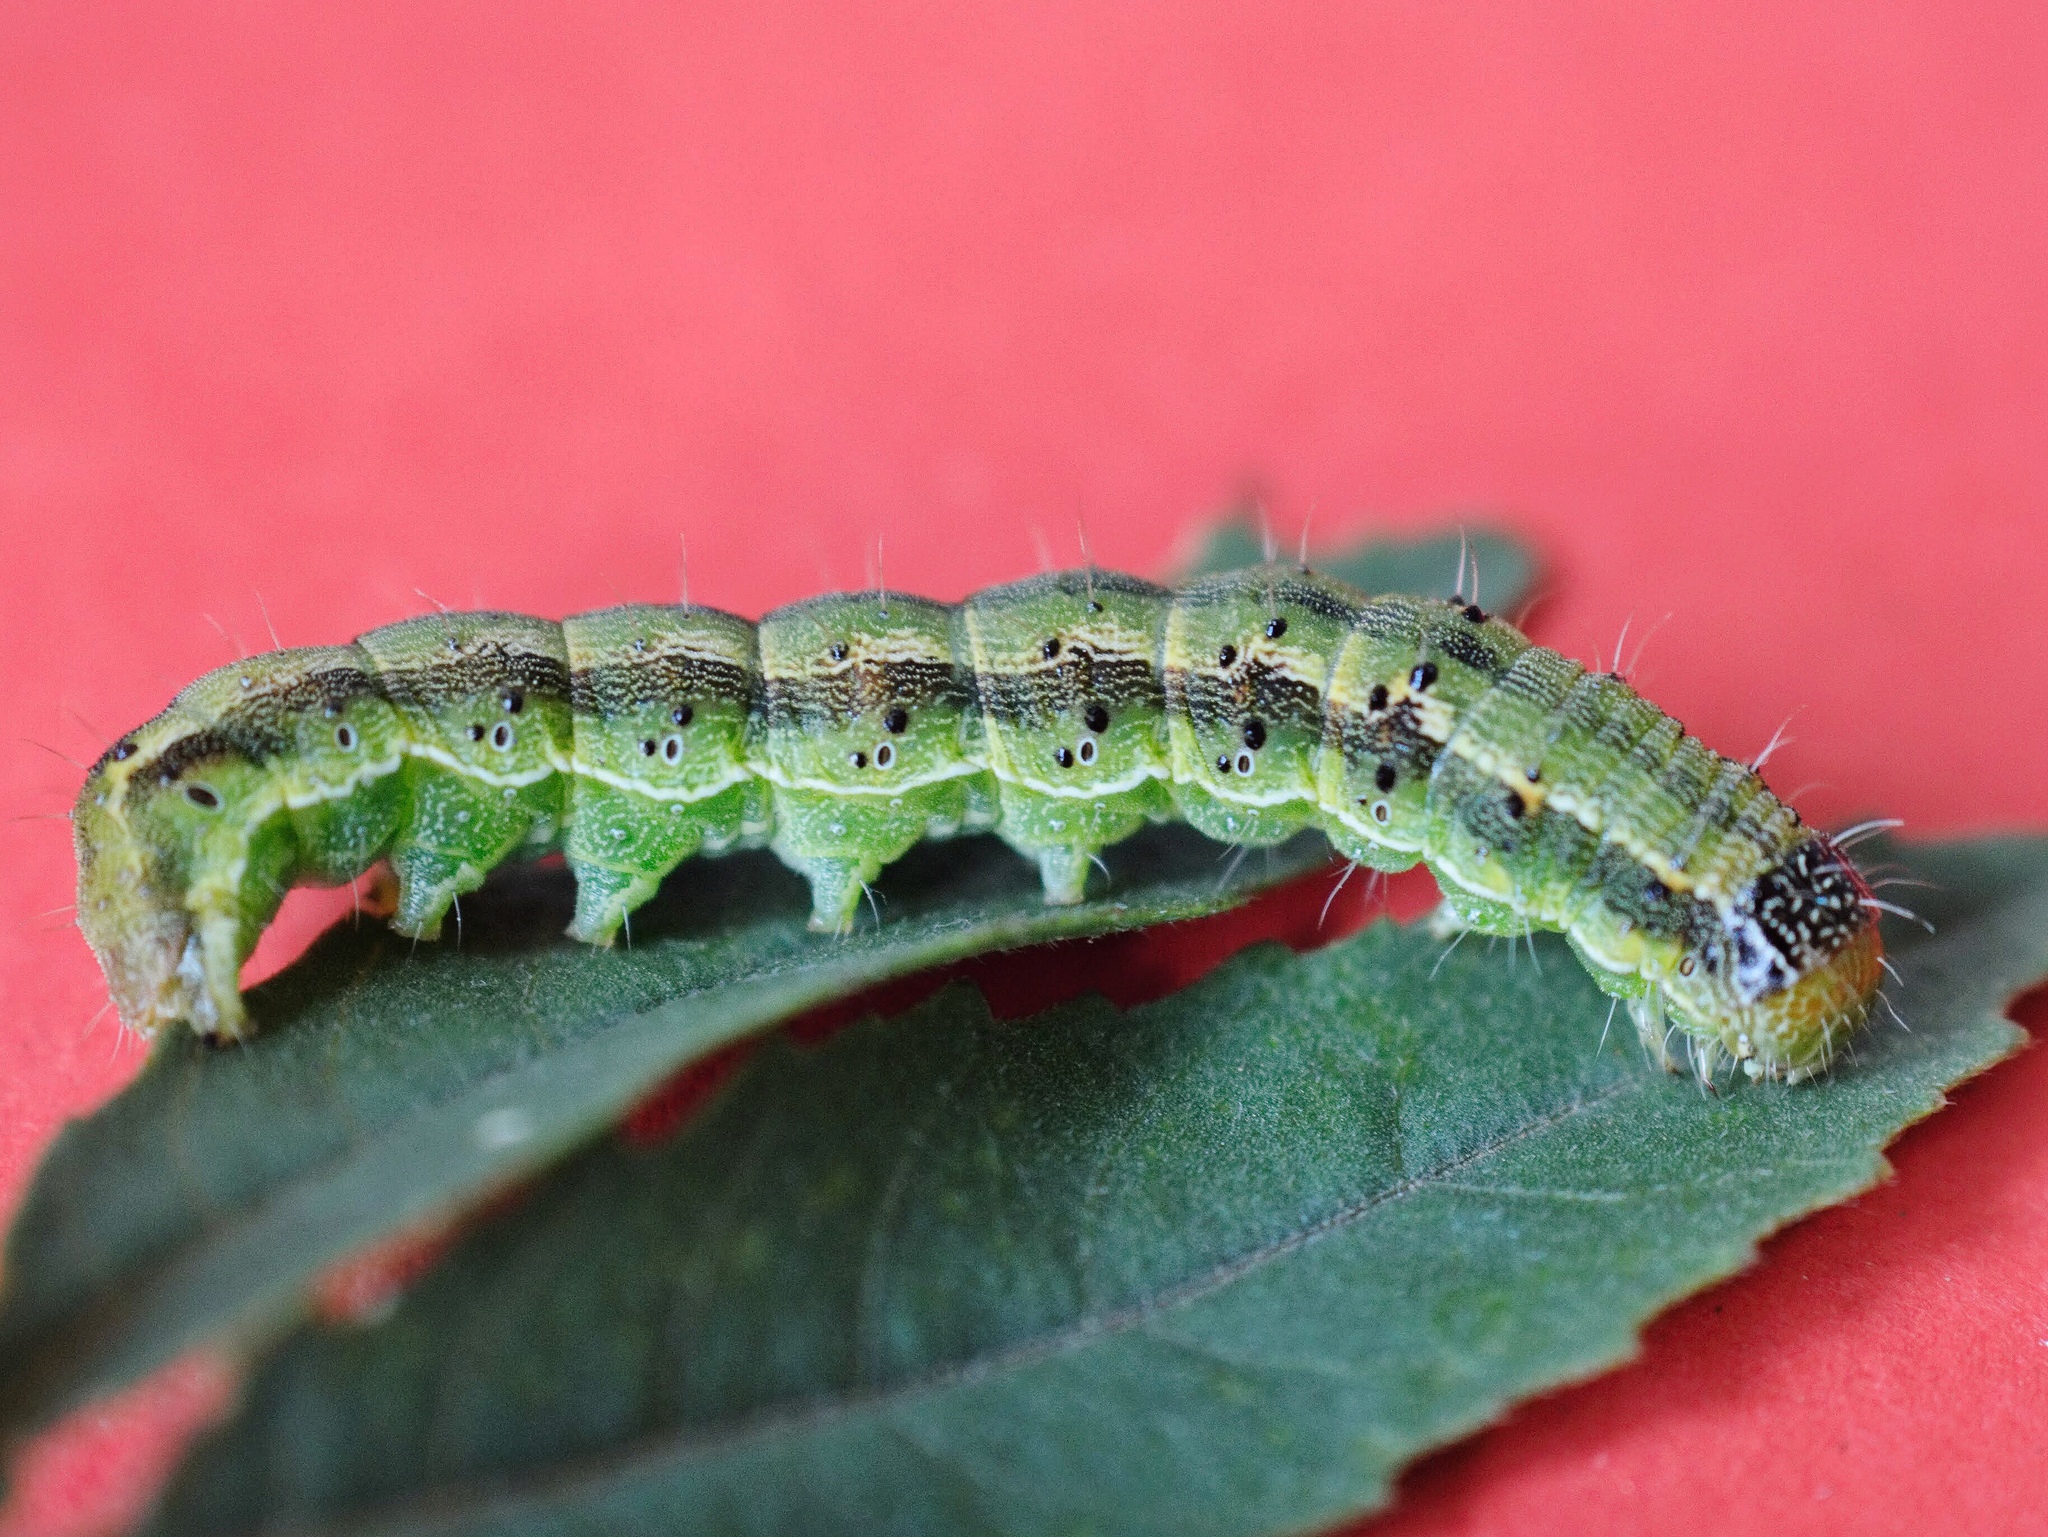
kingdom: Animalia
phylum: Arthropoda
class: Insecta
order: Lepidoptera
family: Noctuidae
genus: Helicoverpa
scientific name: Helicoverpa armigera
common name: Cotton bollworm
